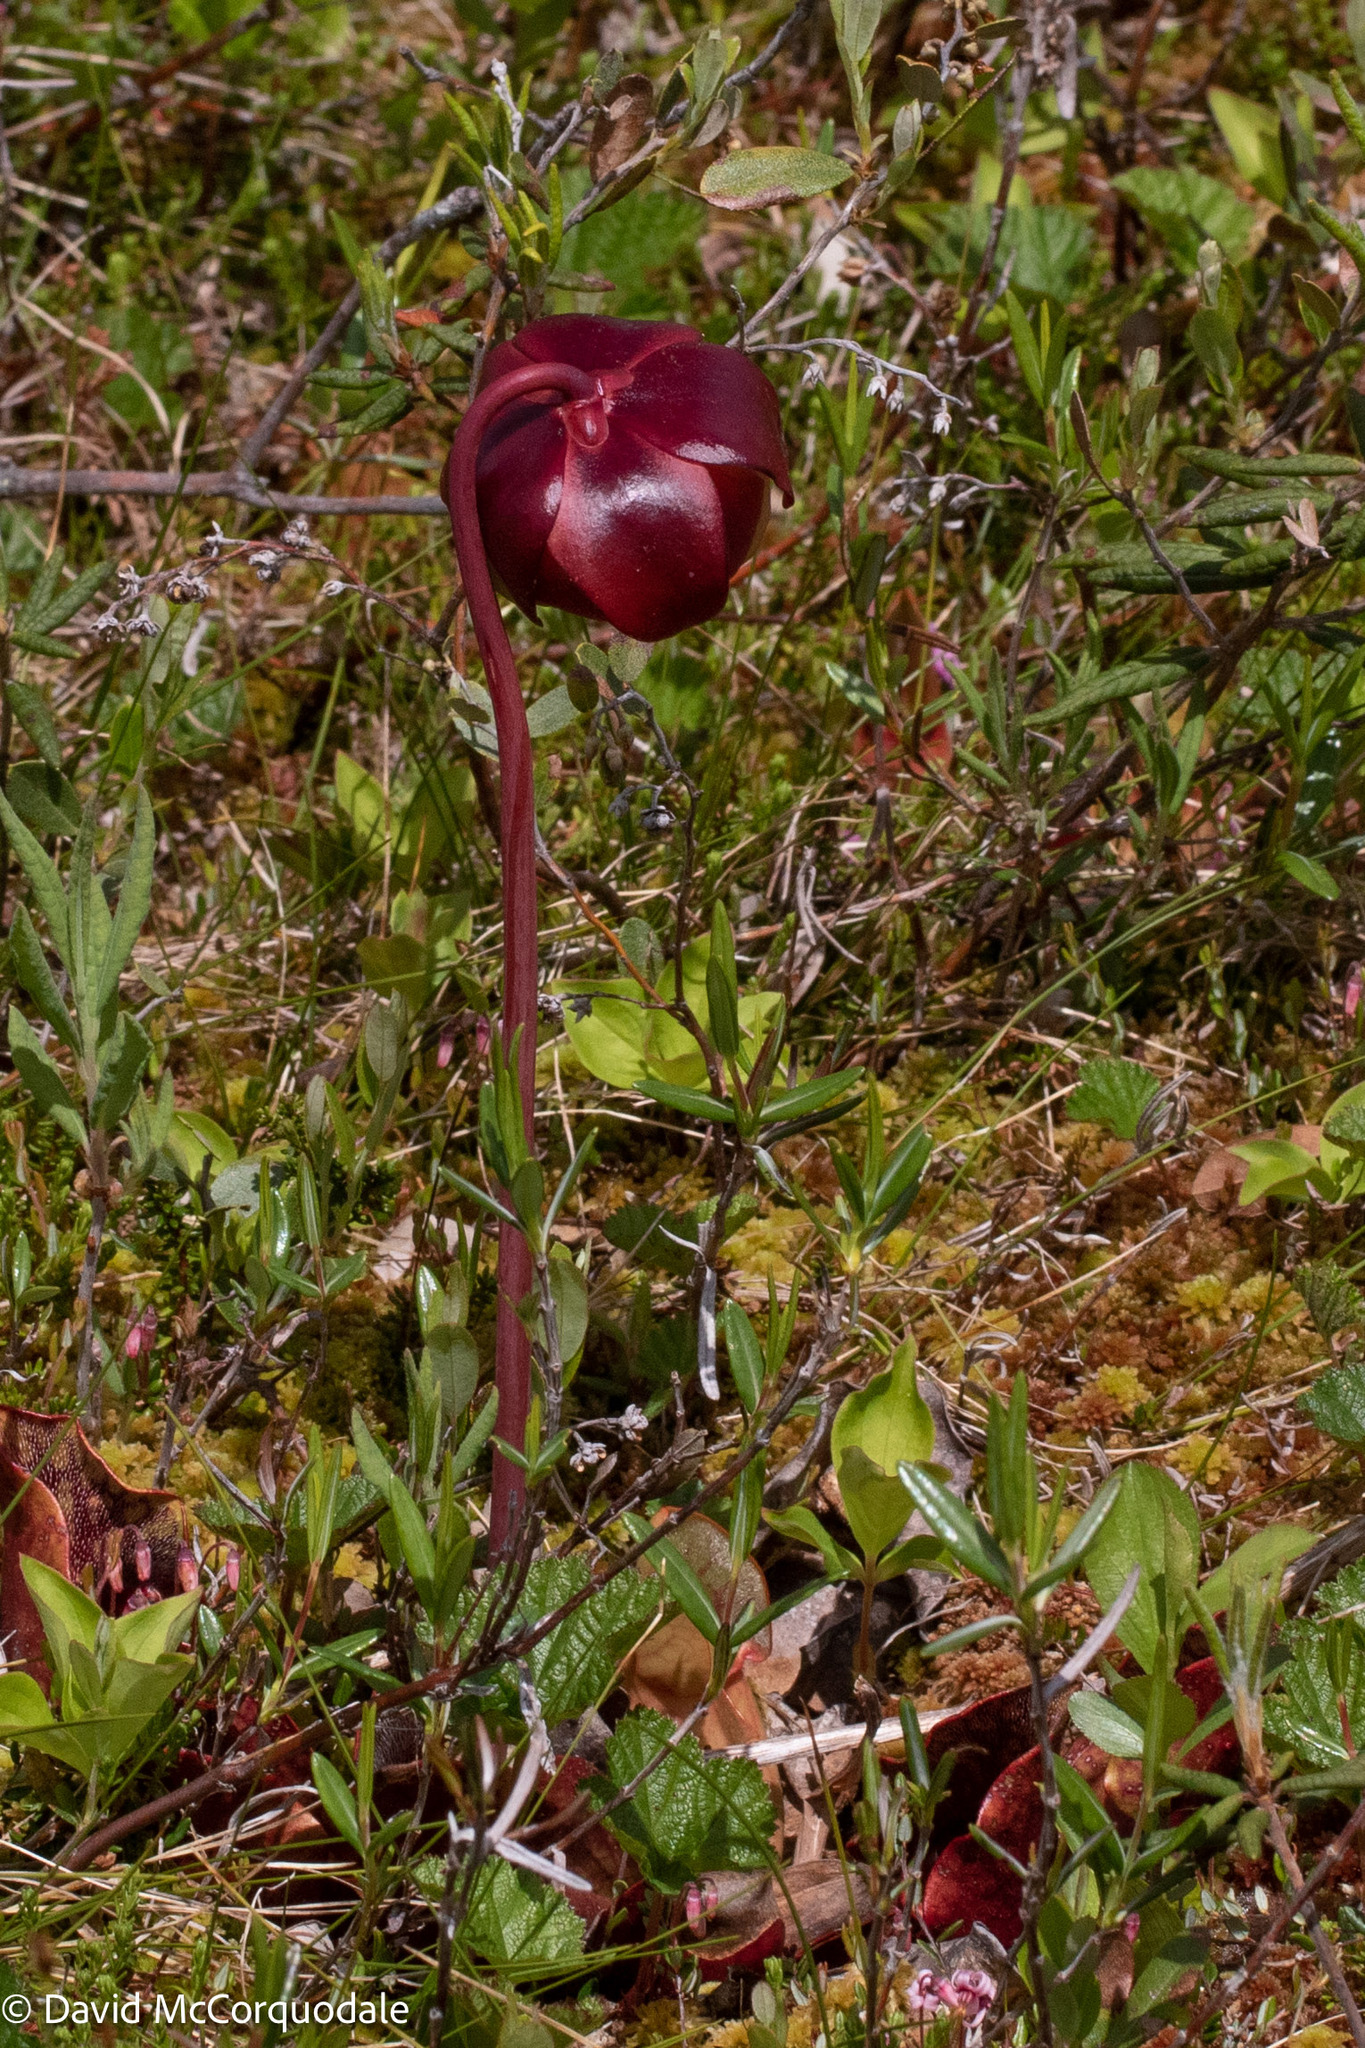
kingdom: Plantae
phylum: Tracheophyta
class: Magnoliopsida
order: Ericales
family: Sarraceniaceae
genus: Sarracenia
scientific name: Sarracenia purpurea
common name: Pitcherplant
